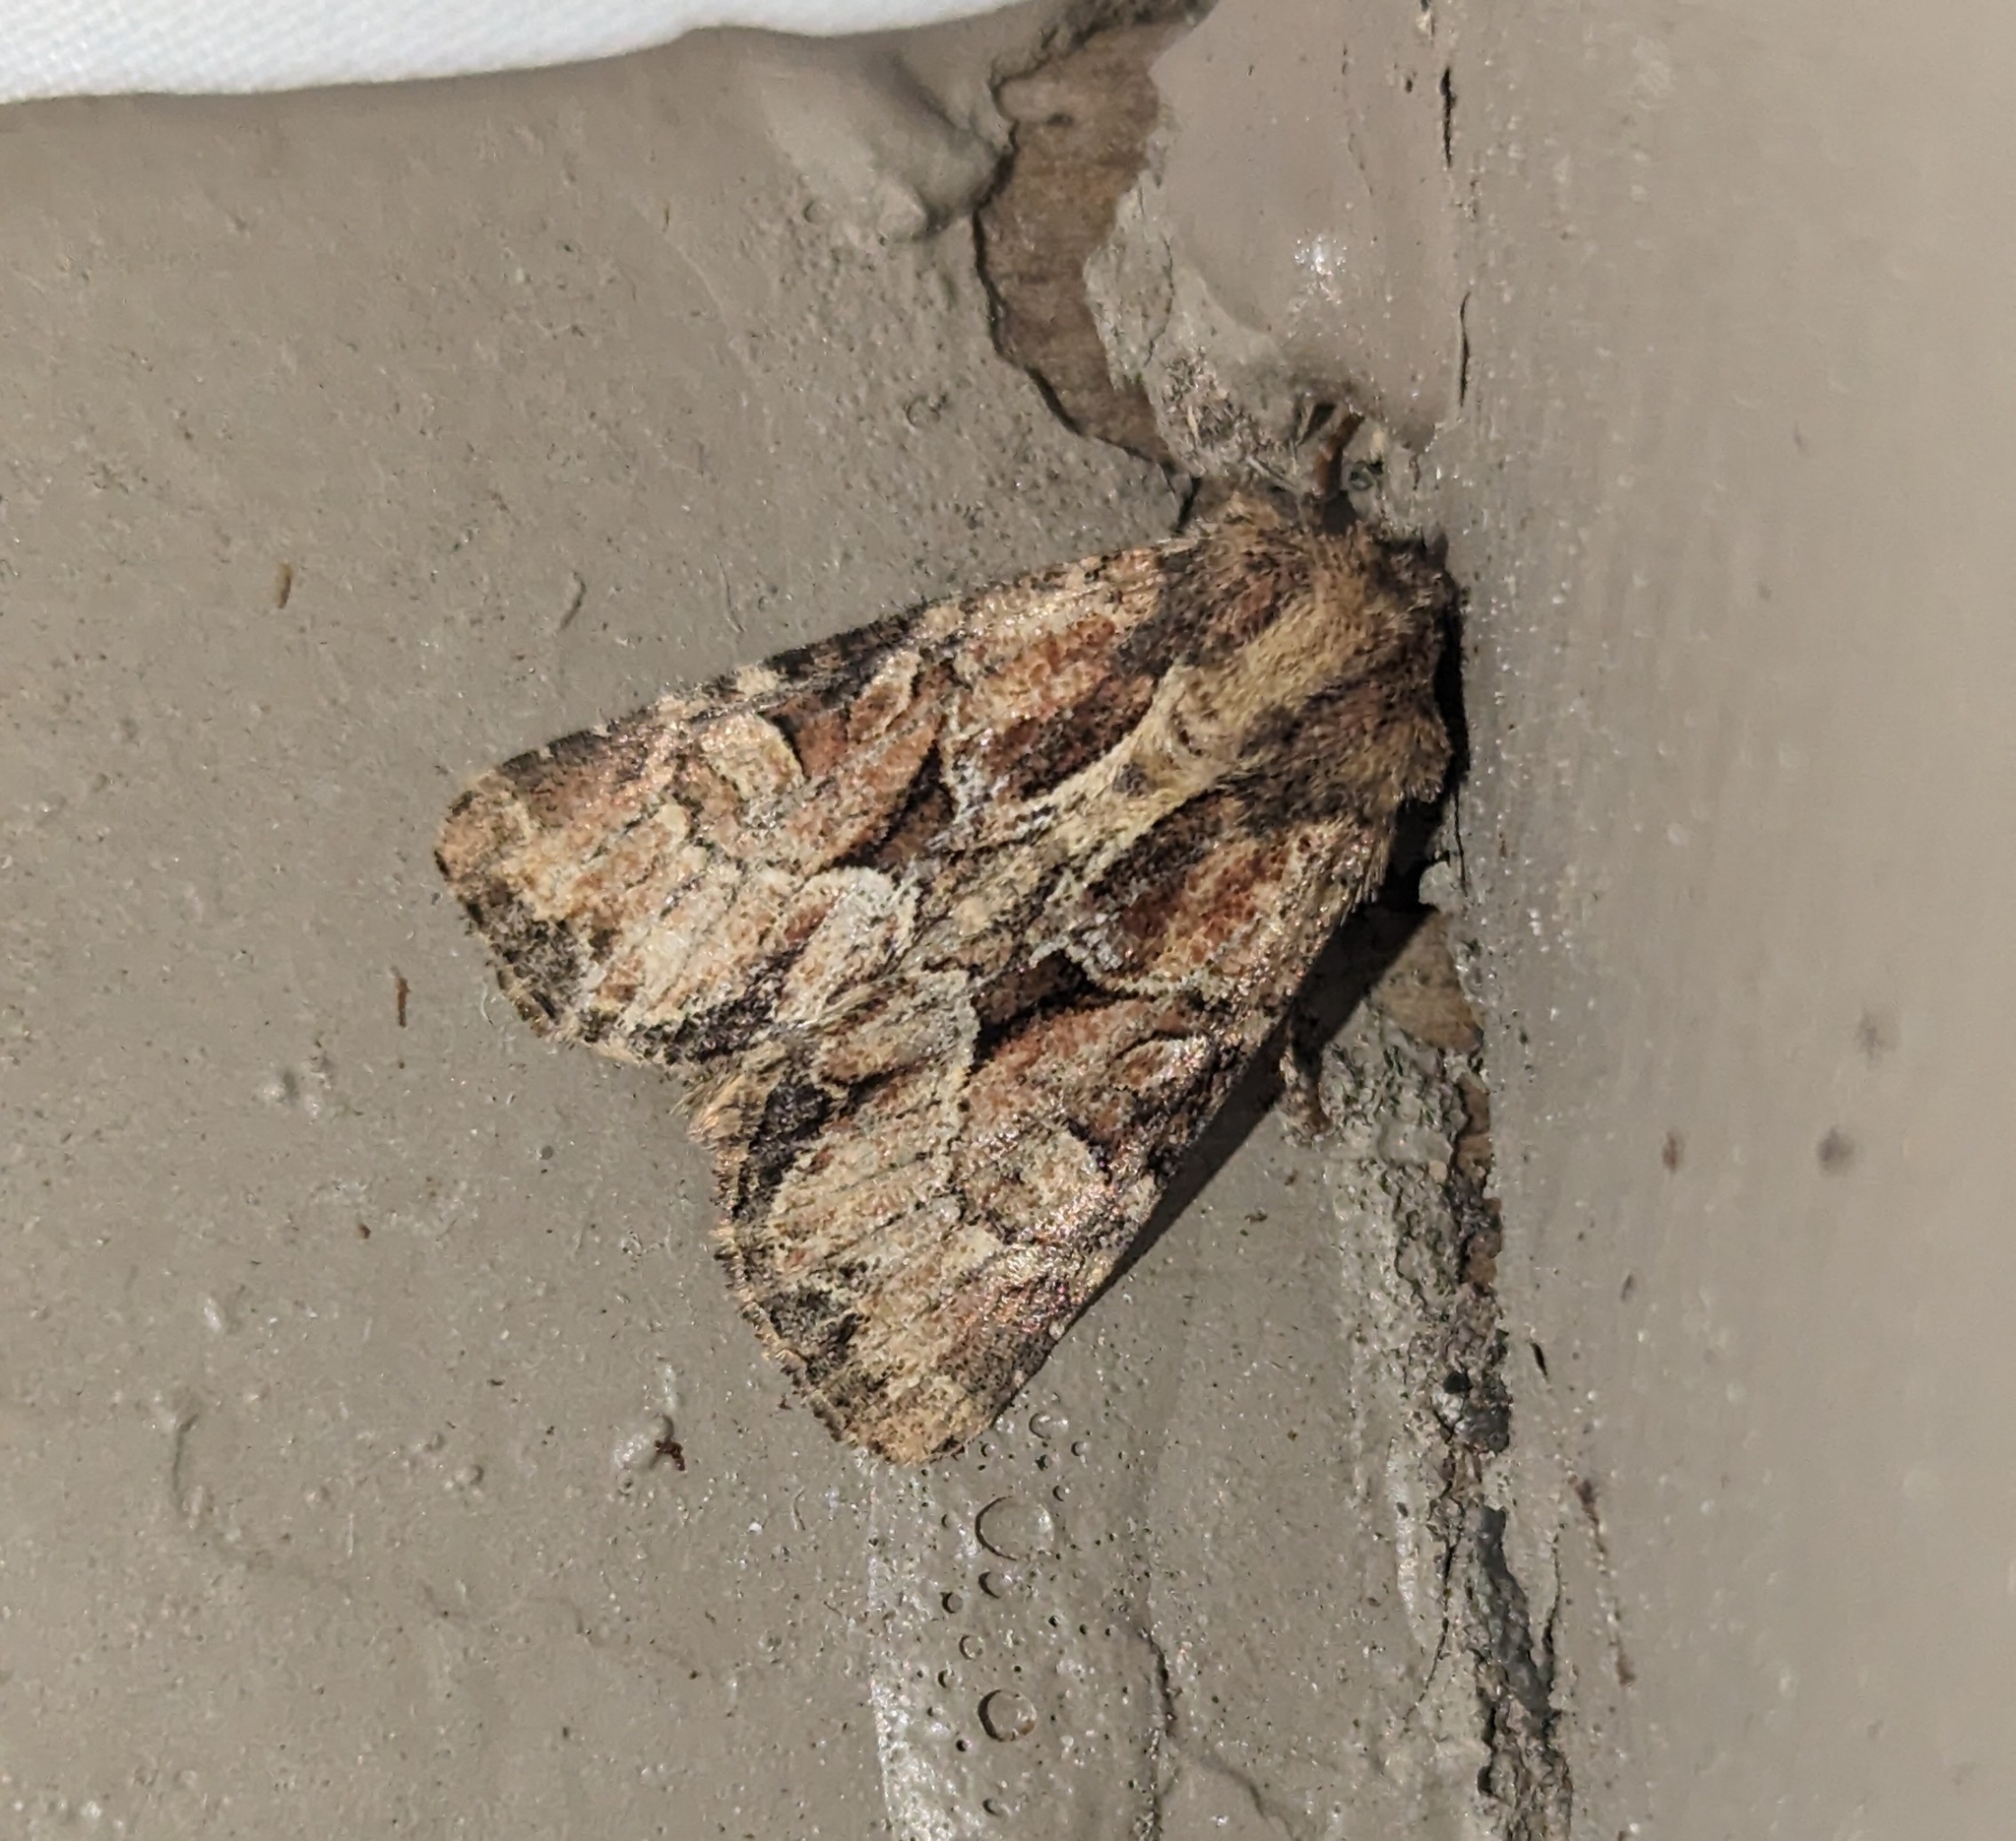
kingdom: Animalia
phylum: Arthropoda
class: Insecta
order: Lepidoptera
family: Noctuidae
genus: Xylomoia
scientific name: Xylomoia indirecta
